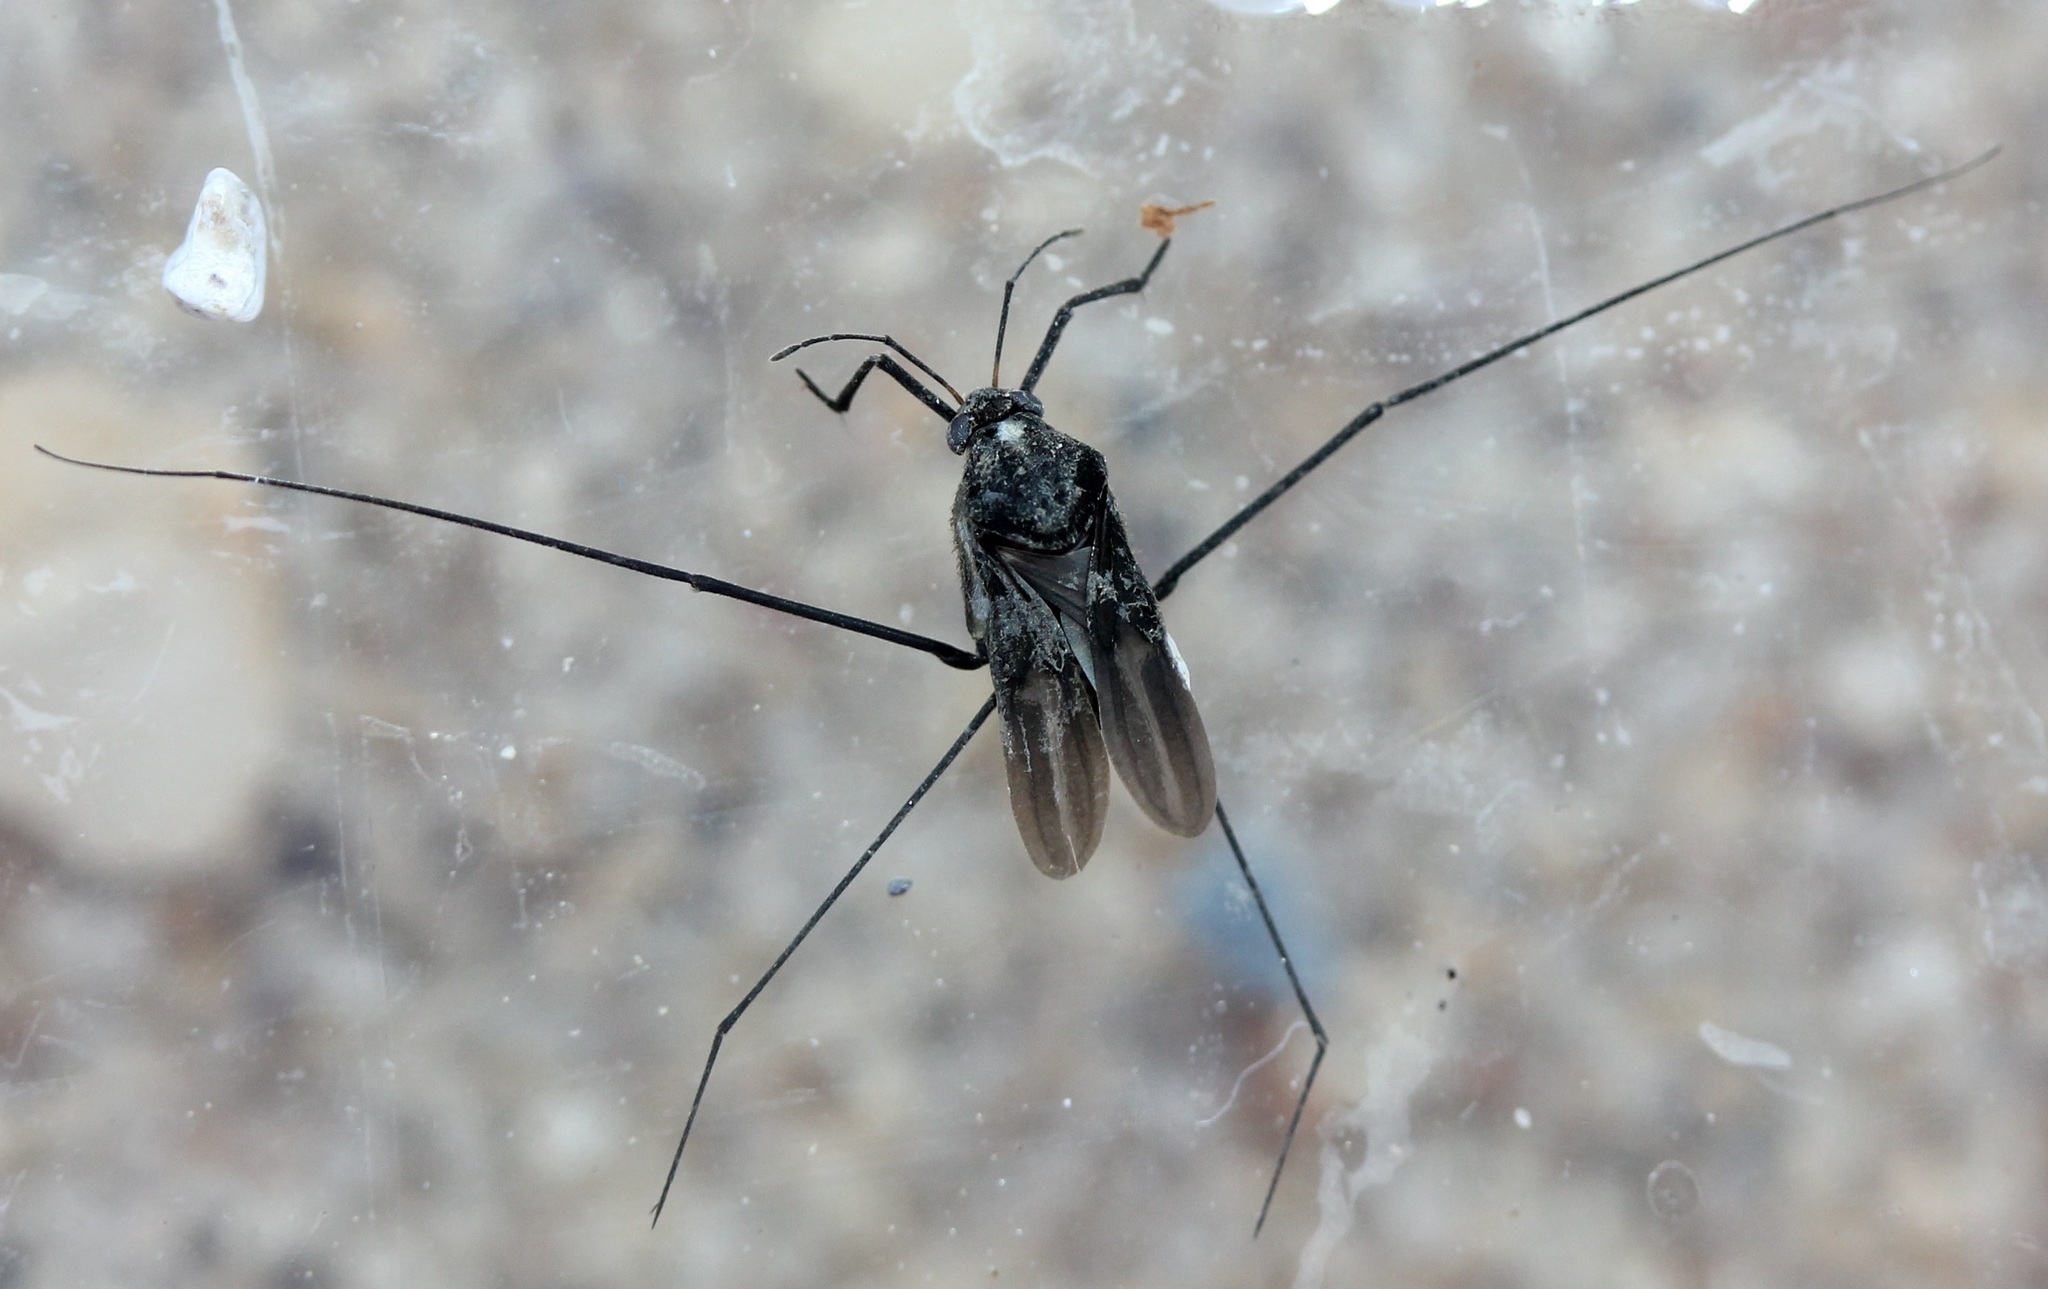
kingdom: Animalia
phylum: Arthropoda
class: Insecta
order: Hemiptera
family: Gerridae
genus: Metrobates
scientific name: Metrobates
